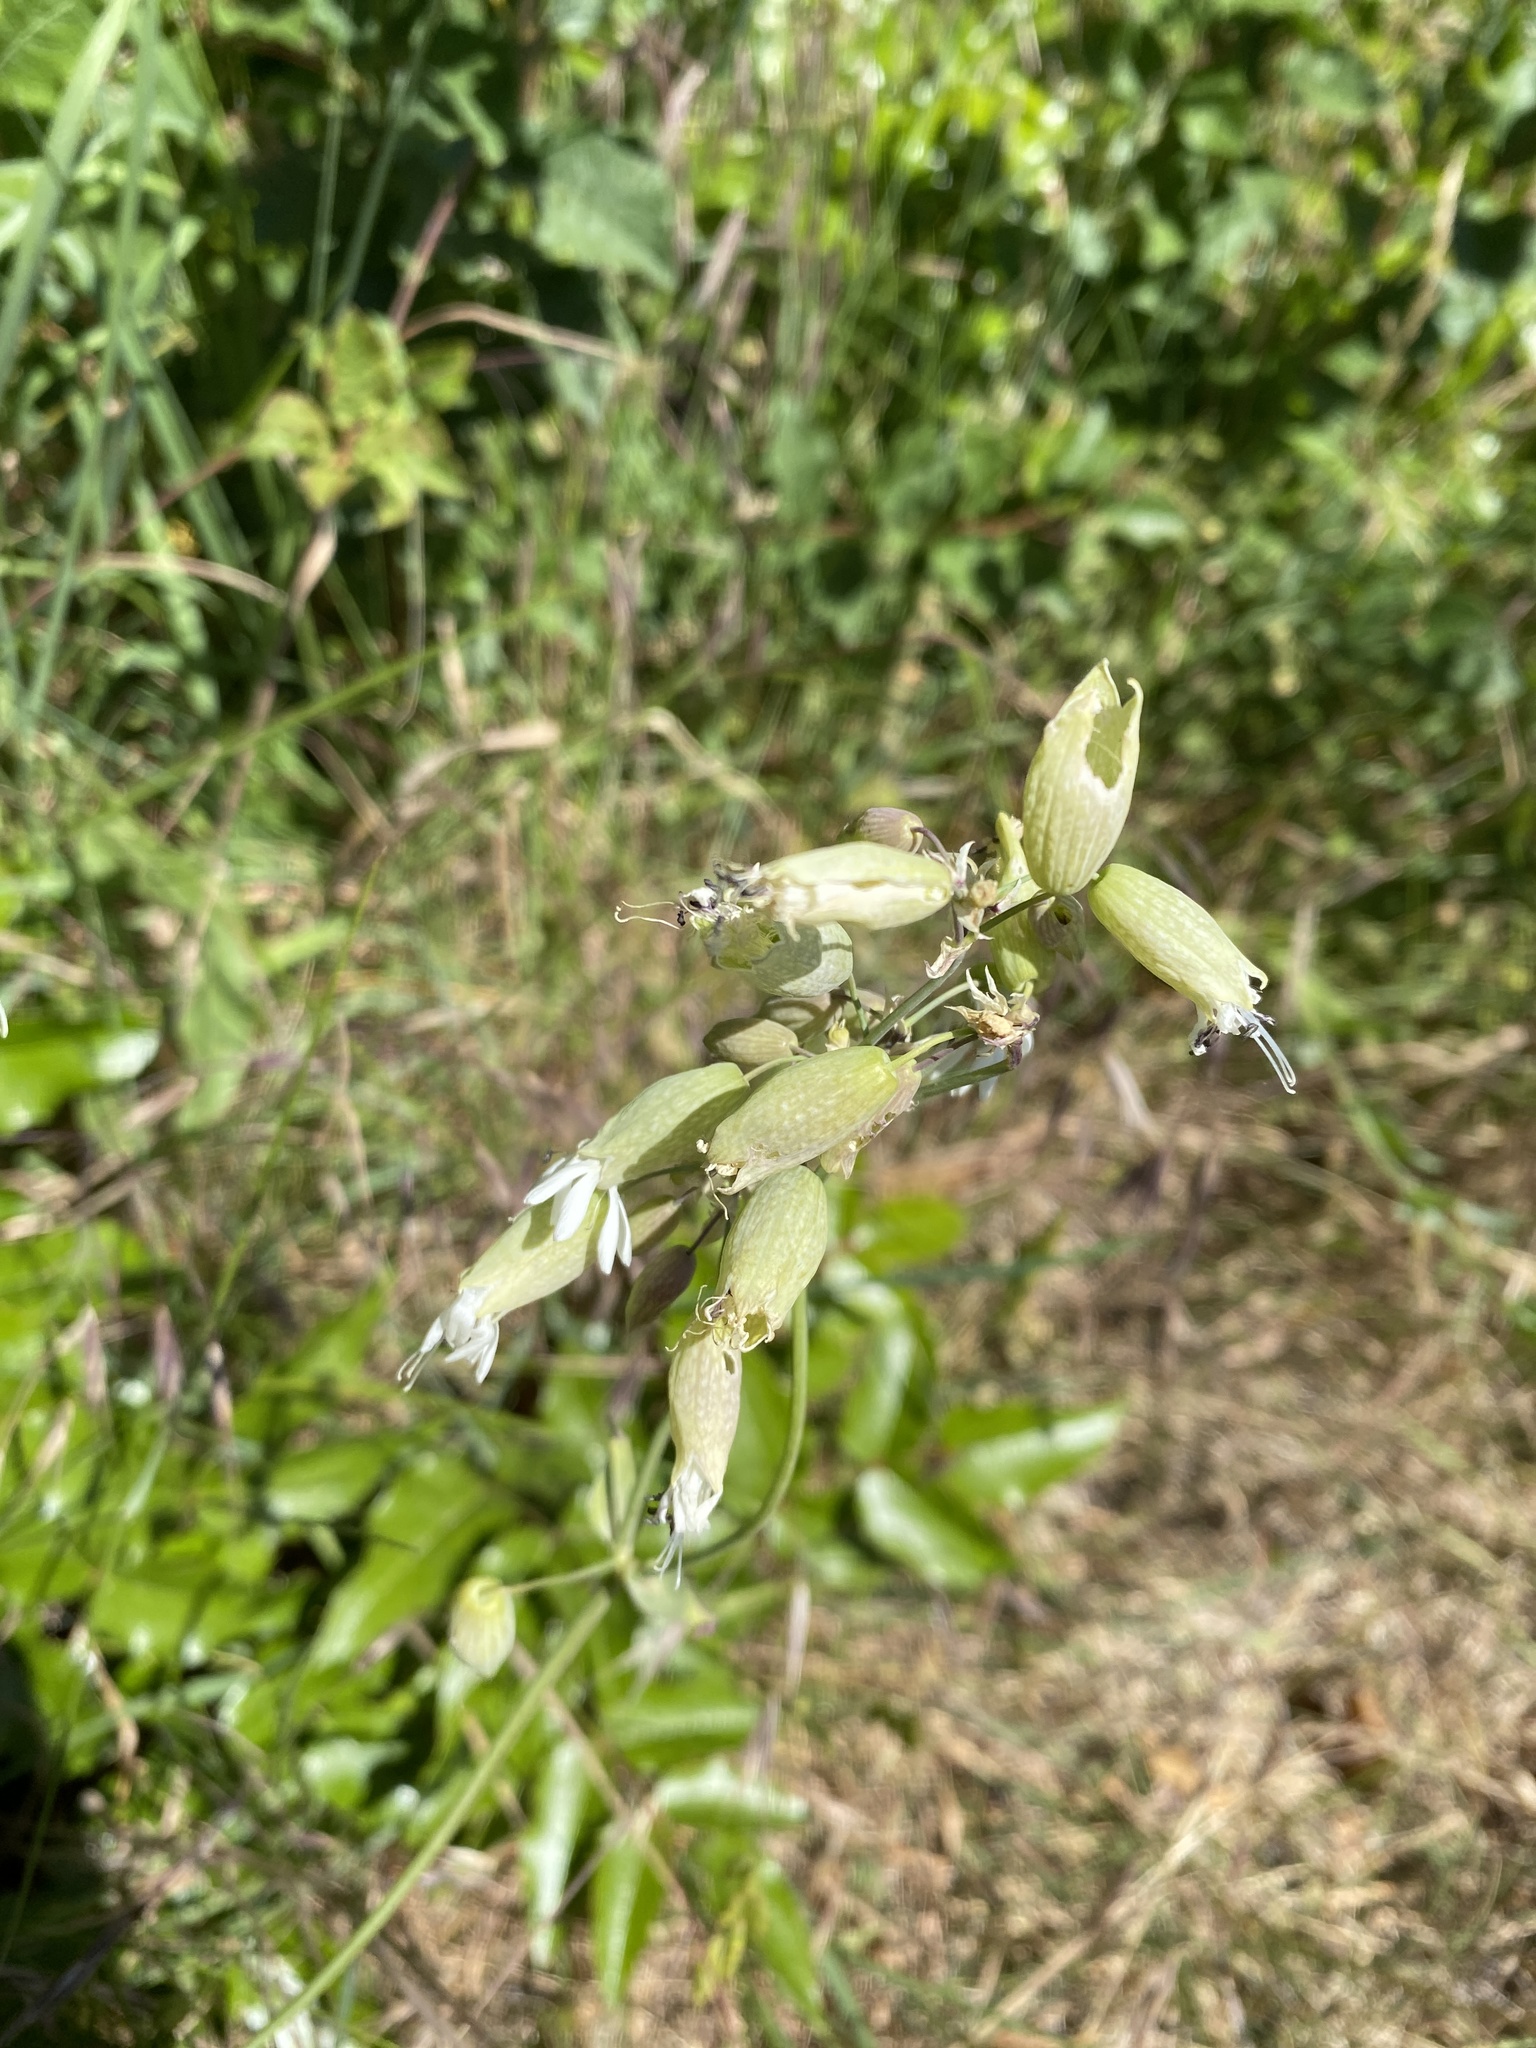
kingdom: Plantae
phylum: Tracheophyta
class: Magnoliopsida
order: Caryophyllales
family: Caryophyllaceae
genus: Silene
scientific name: Silene vulgaris
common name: Bladder campion
